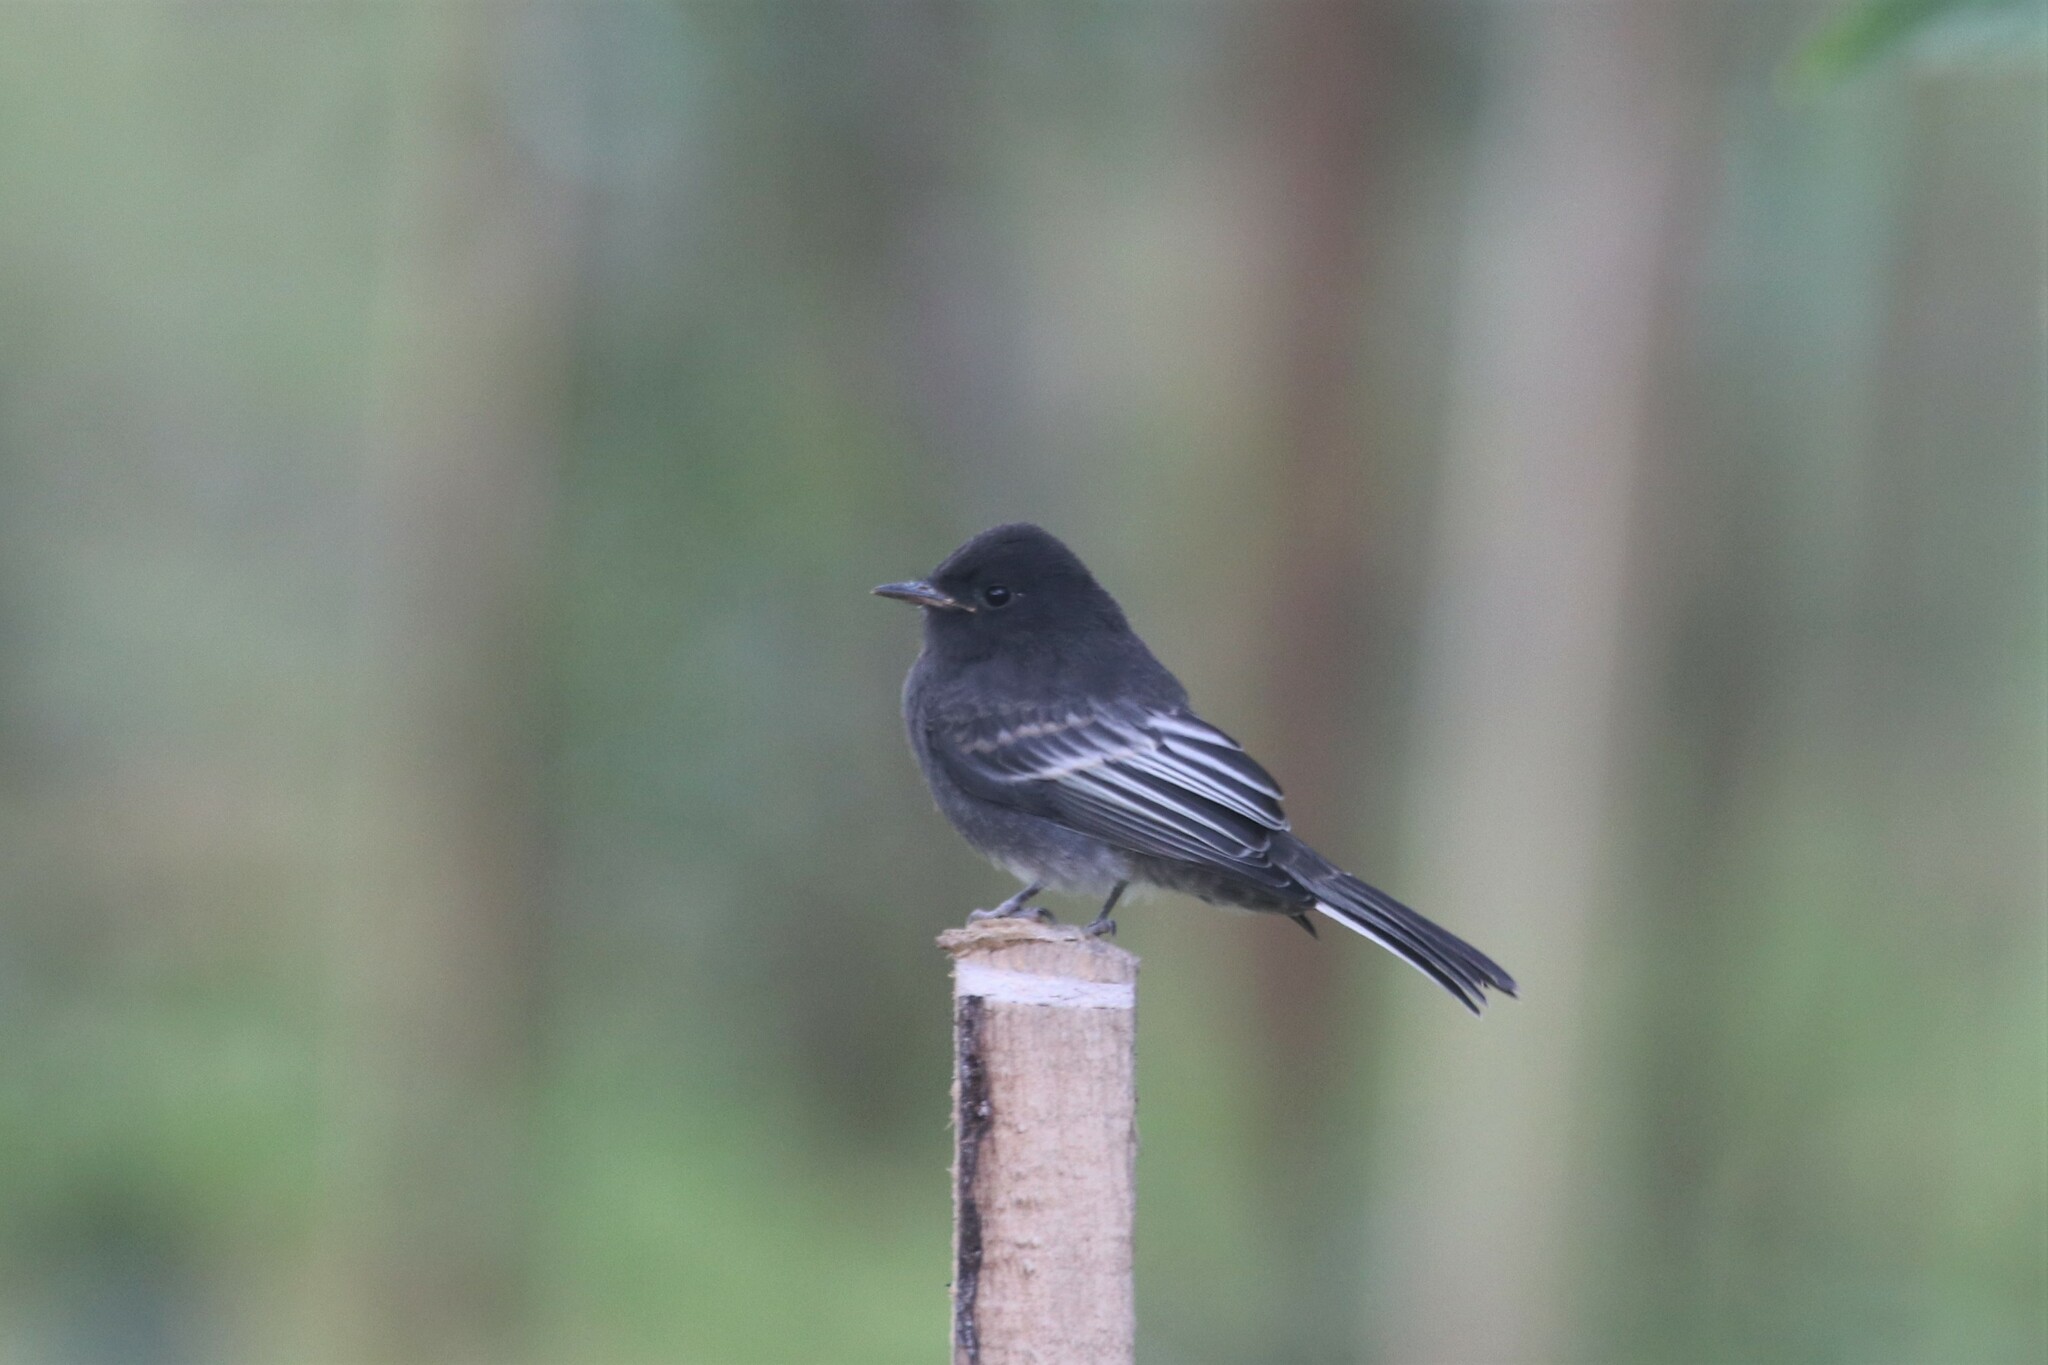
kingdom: Animalia
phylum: Chordata
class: Aves
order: Passeriformes
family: Tyrannidae
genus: Sayornis
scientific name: Sayornis nigricans
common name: Black phoebe
